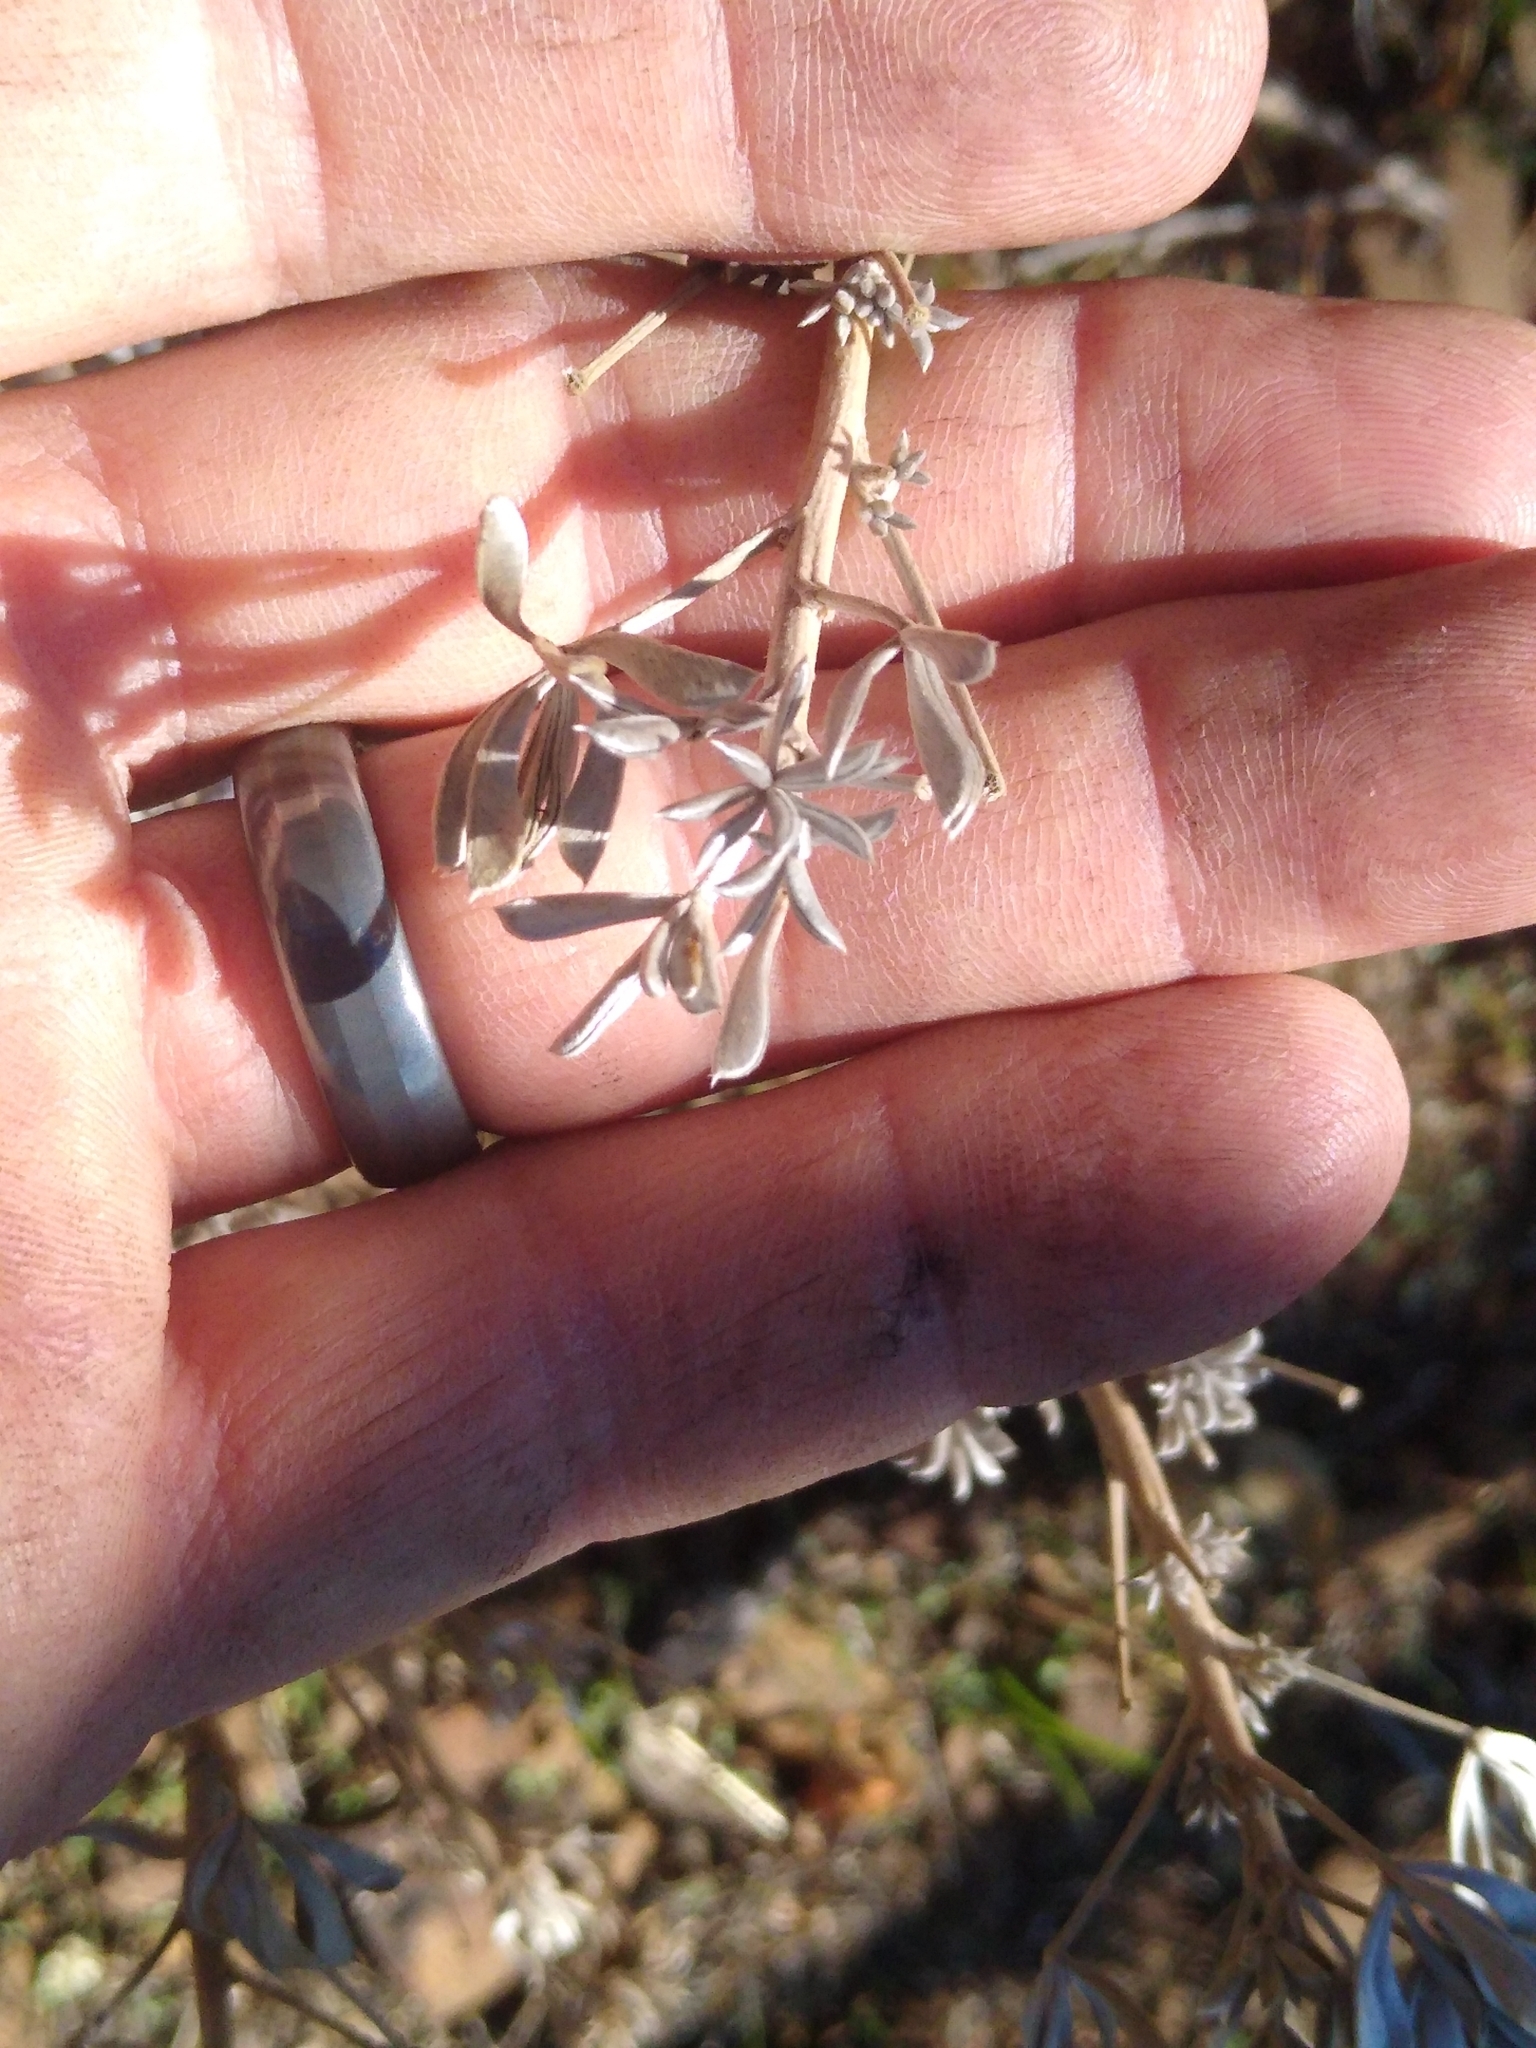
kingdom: Plantae
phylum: Tracheophyta
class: Magnoliopsida
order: Fabales
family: Fabaceae
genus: Lupinus
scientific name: Lupinus albifrons
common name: Foothill lupine
